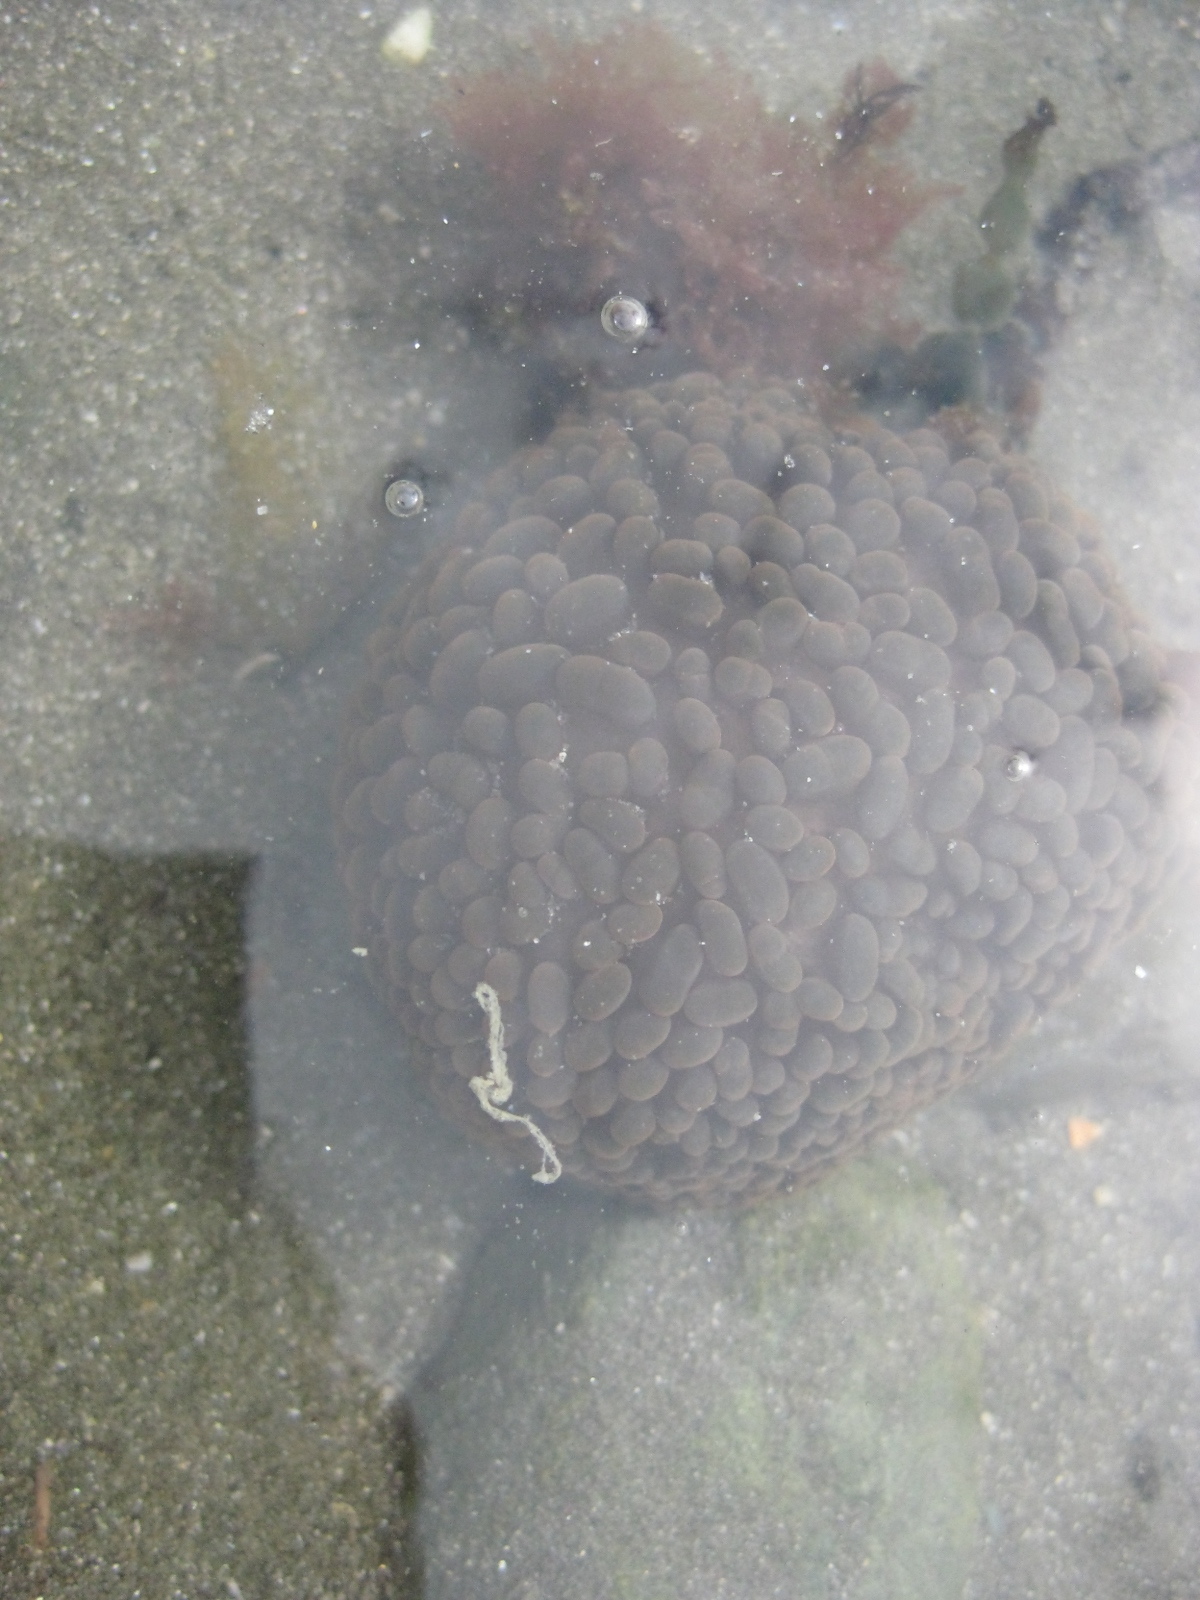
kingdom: Animalia
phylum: Cnidaria
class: Anthozoa
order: Actiniaria
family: Actiniidae
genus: Phlyctenactis
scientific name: Phlyctenactis tuberculosa
